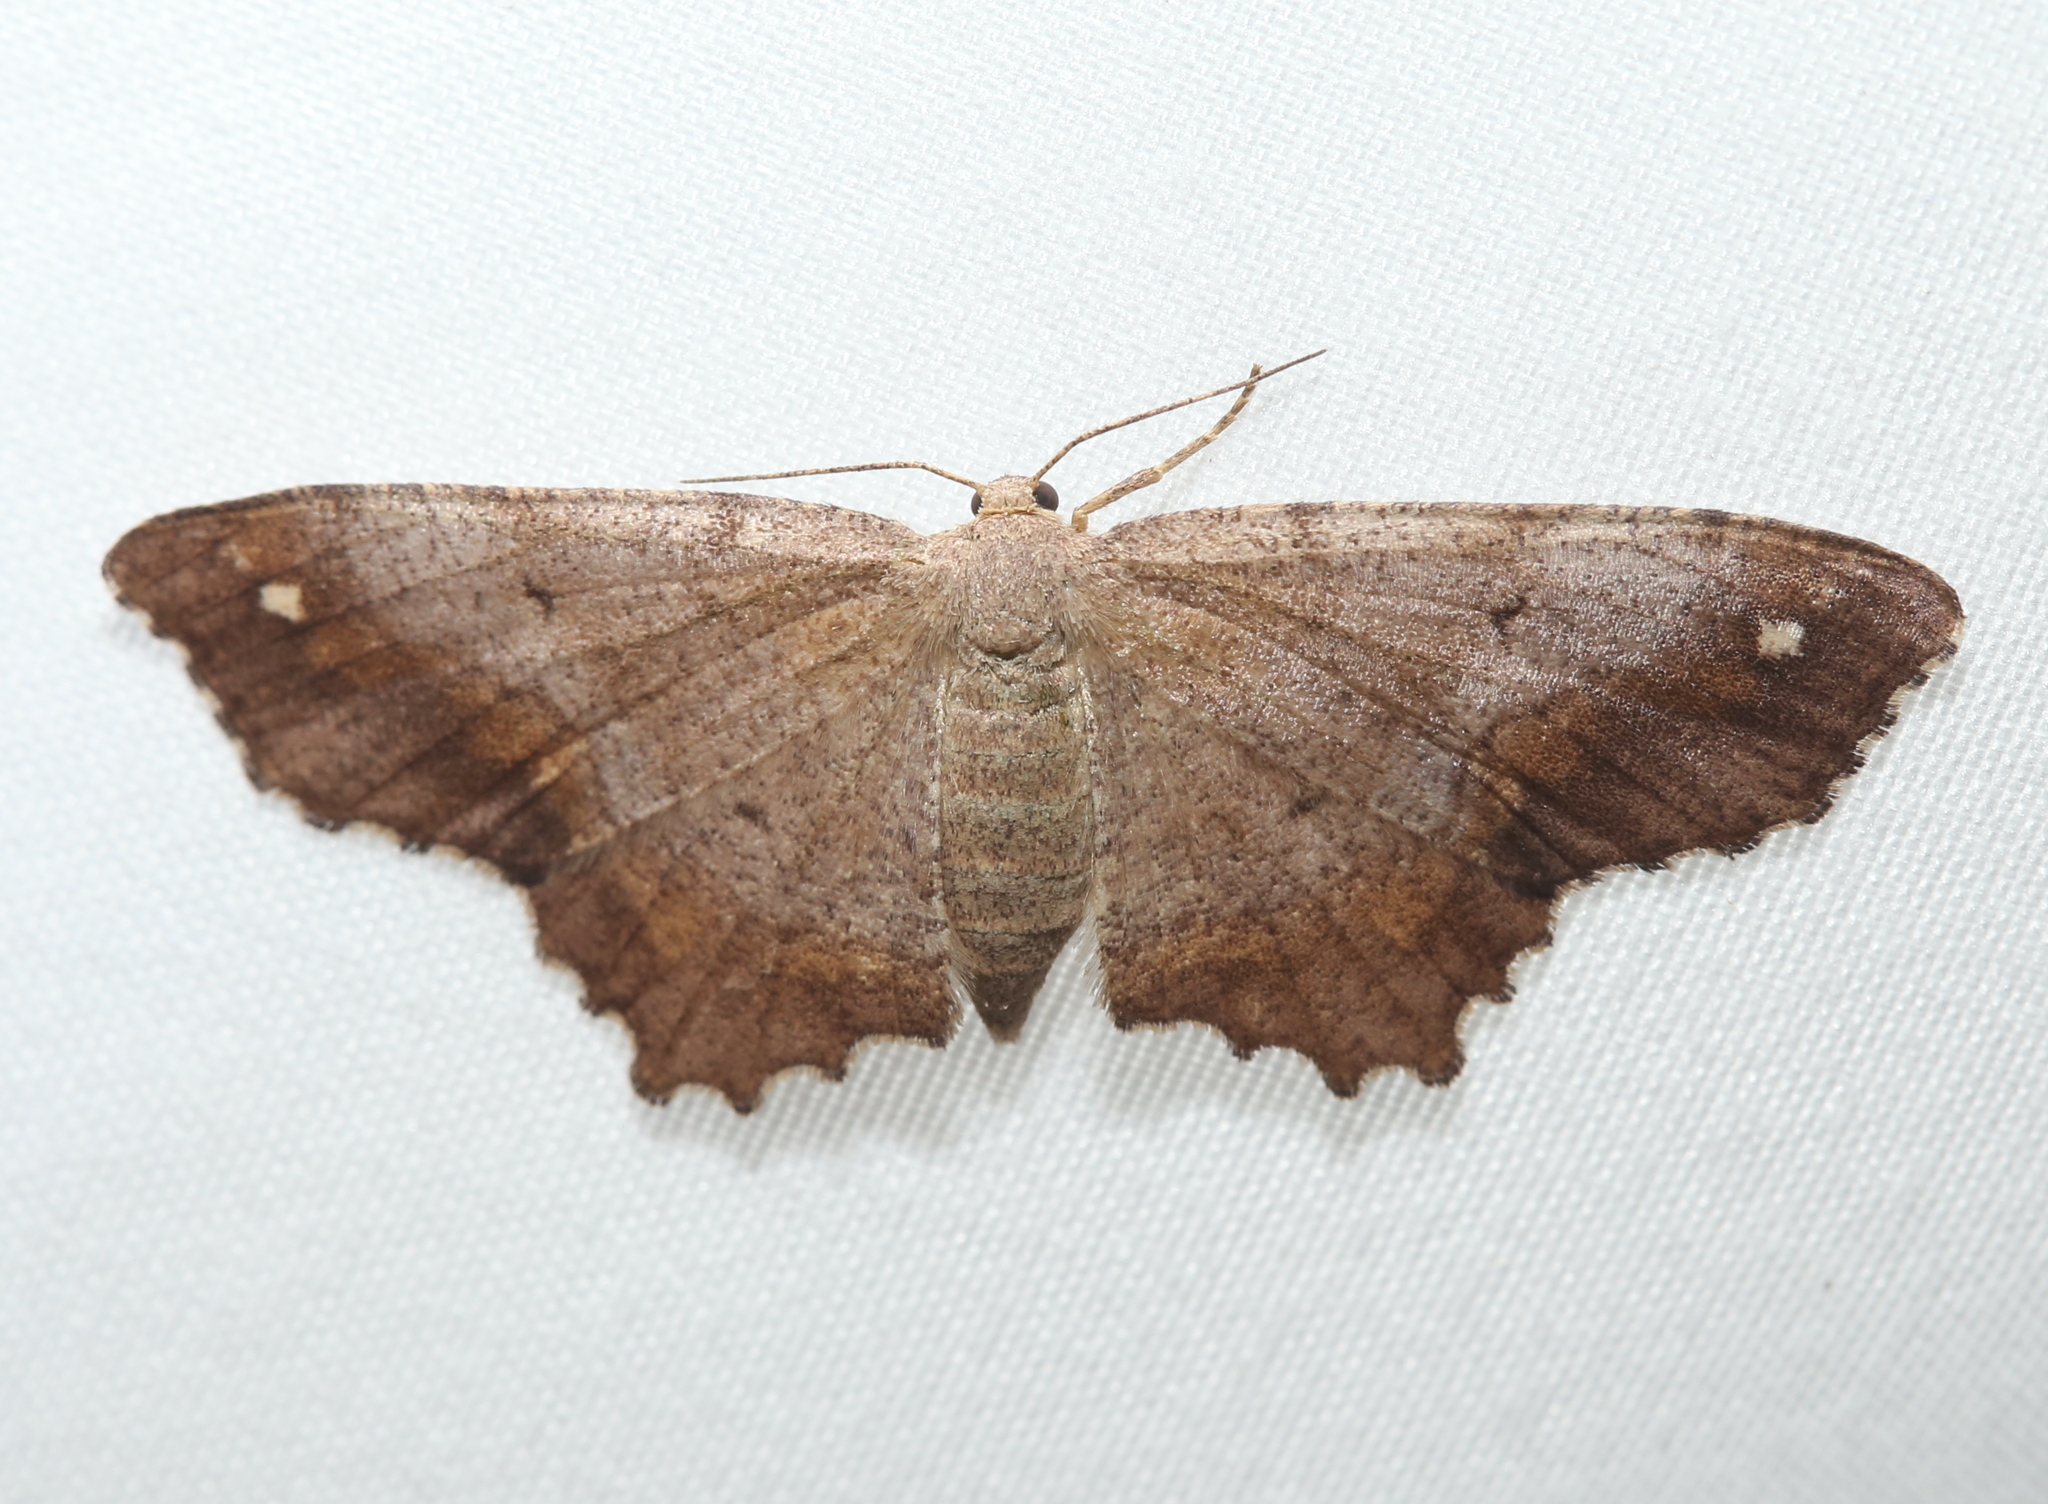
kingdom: Animalia
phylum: Arthropoda
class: Insecta
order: Lepidoptera
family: Geometridae
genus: Hypagyrtis
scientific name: Hypagyrtis esther
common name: Esther moth
